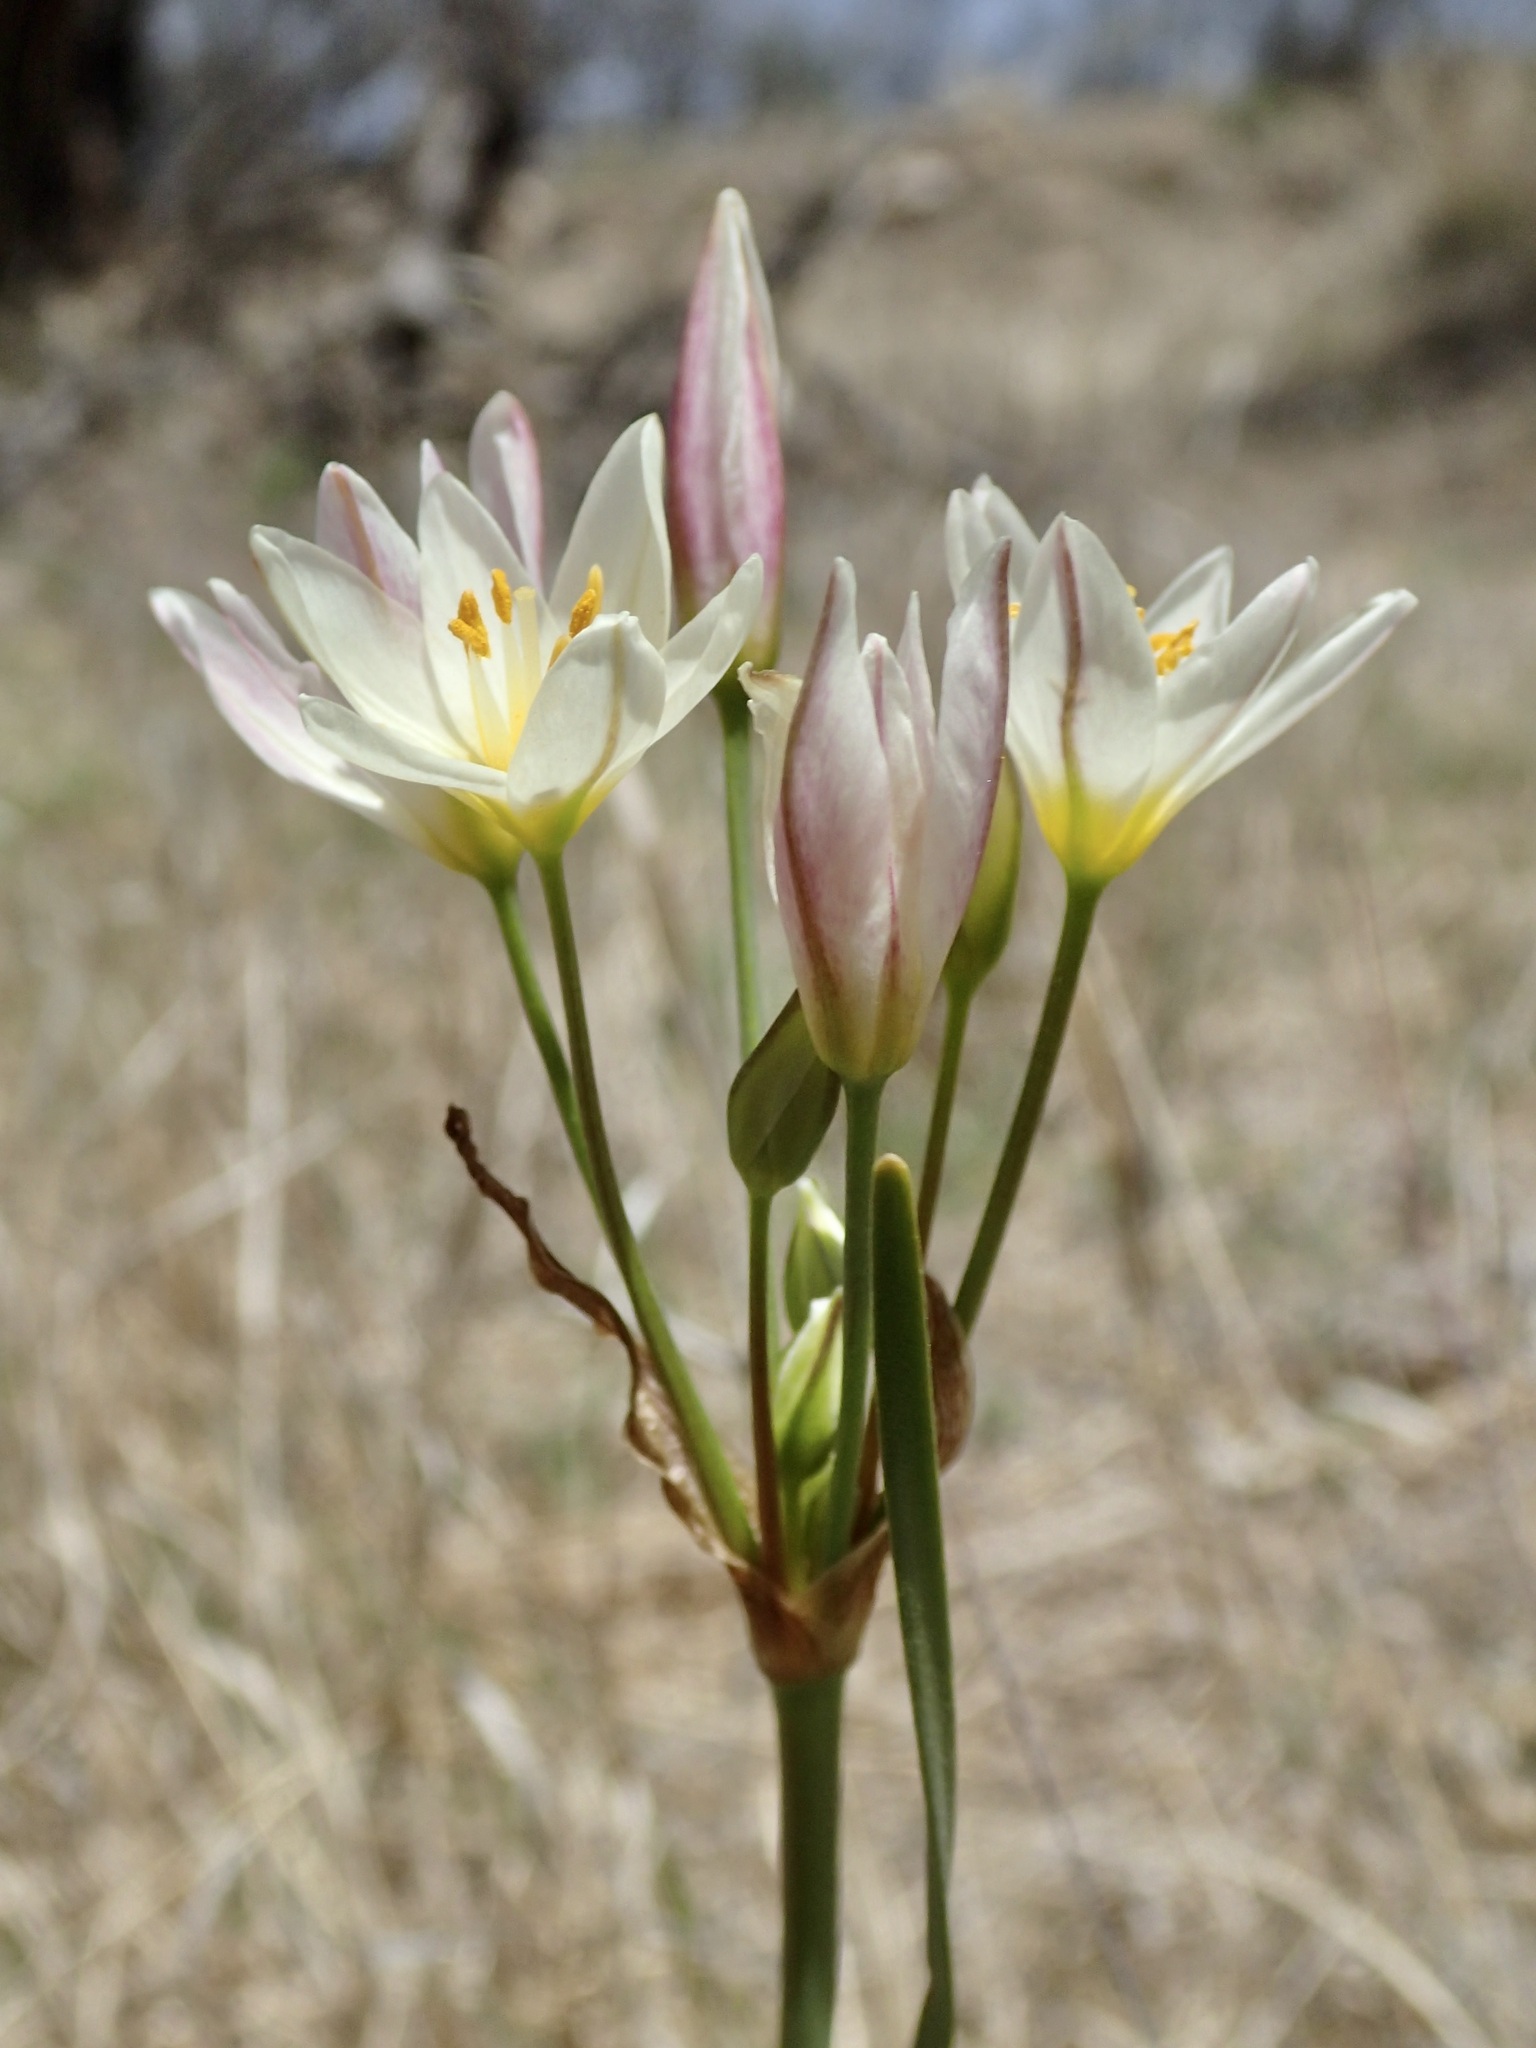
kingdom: Plantae
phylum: Tracheophyta
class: Liliopsida
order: Asparagales
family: Amaryllidaceae
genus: Nothoscordum
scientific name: Nothoscordum bivalve
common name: Crow-poison
